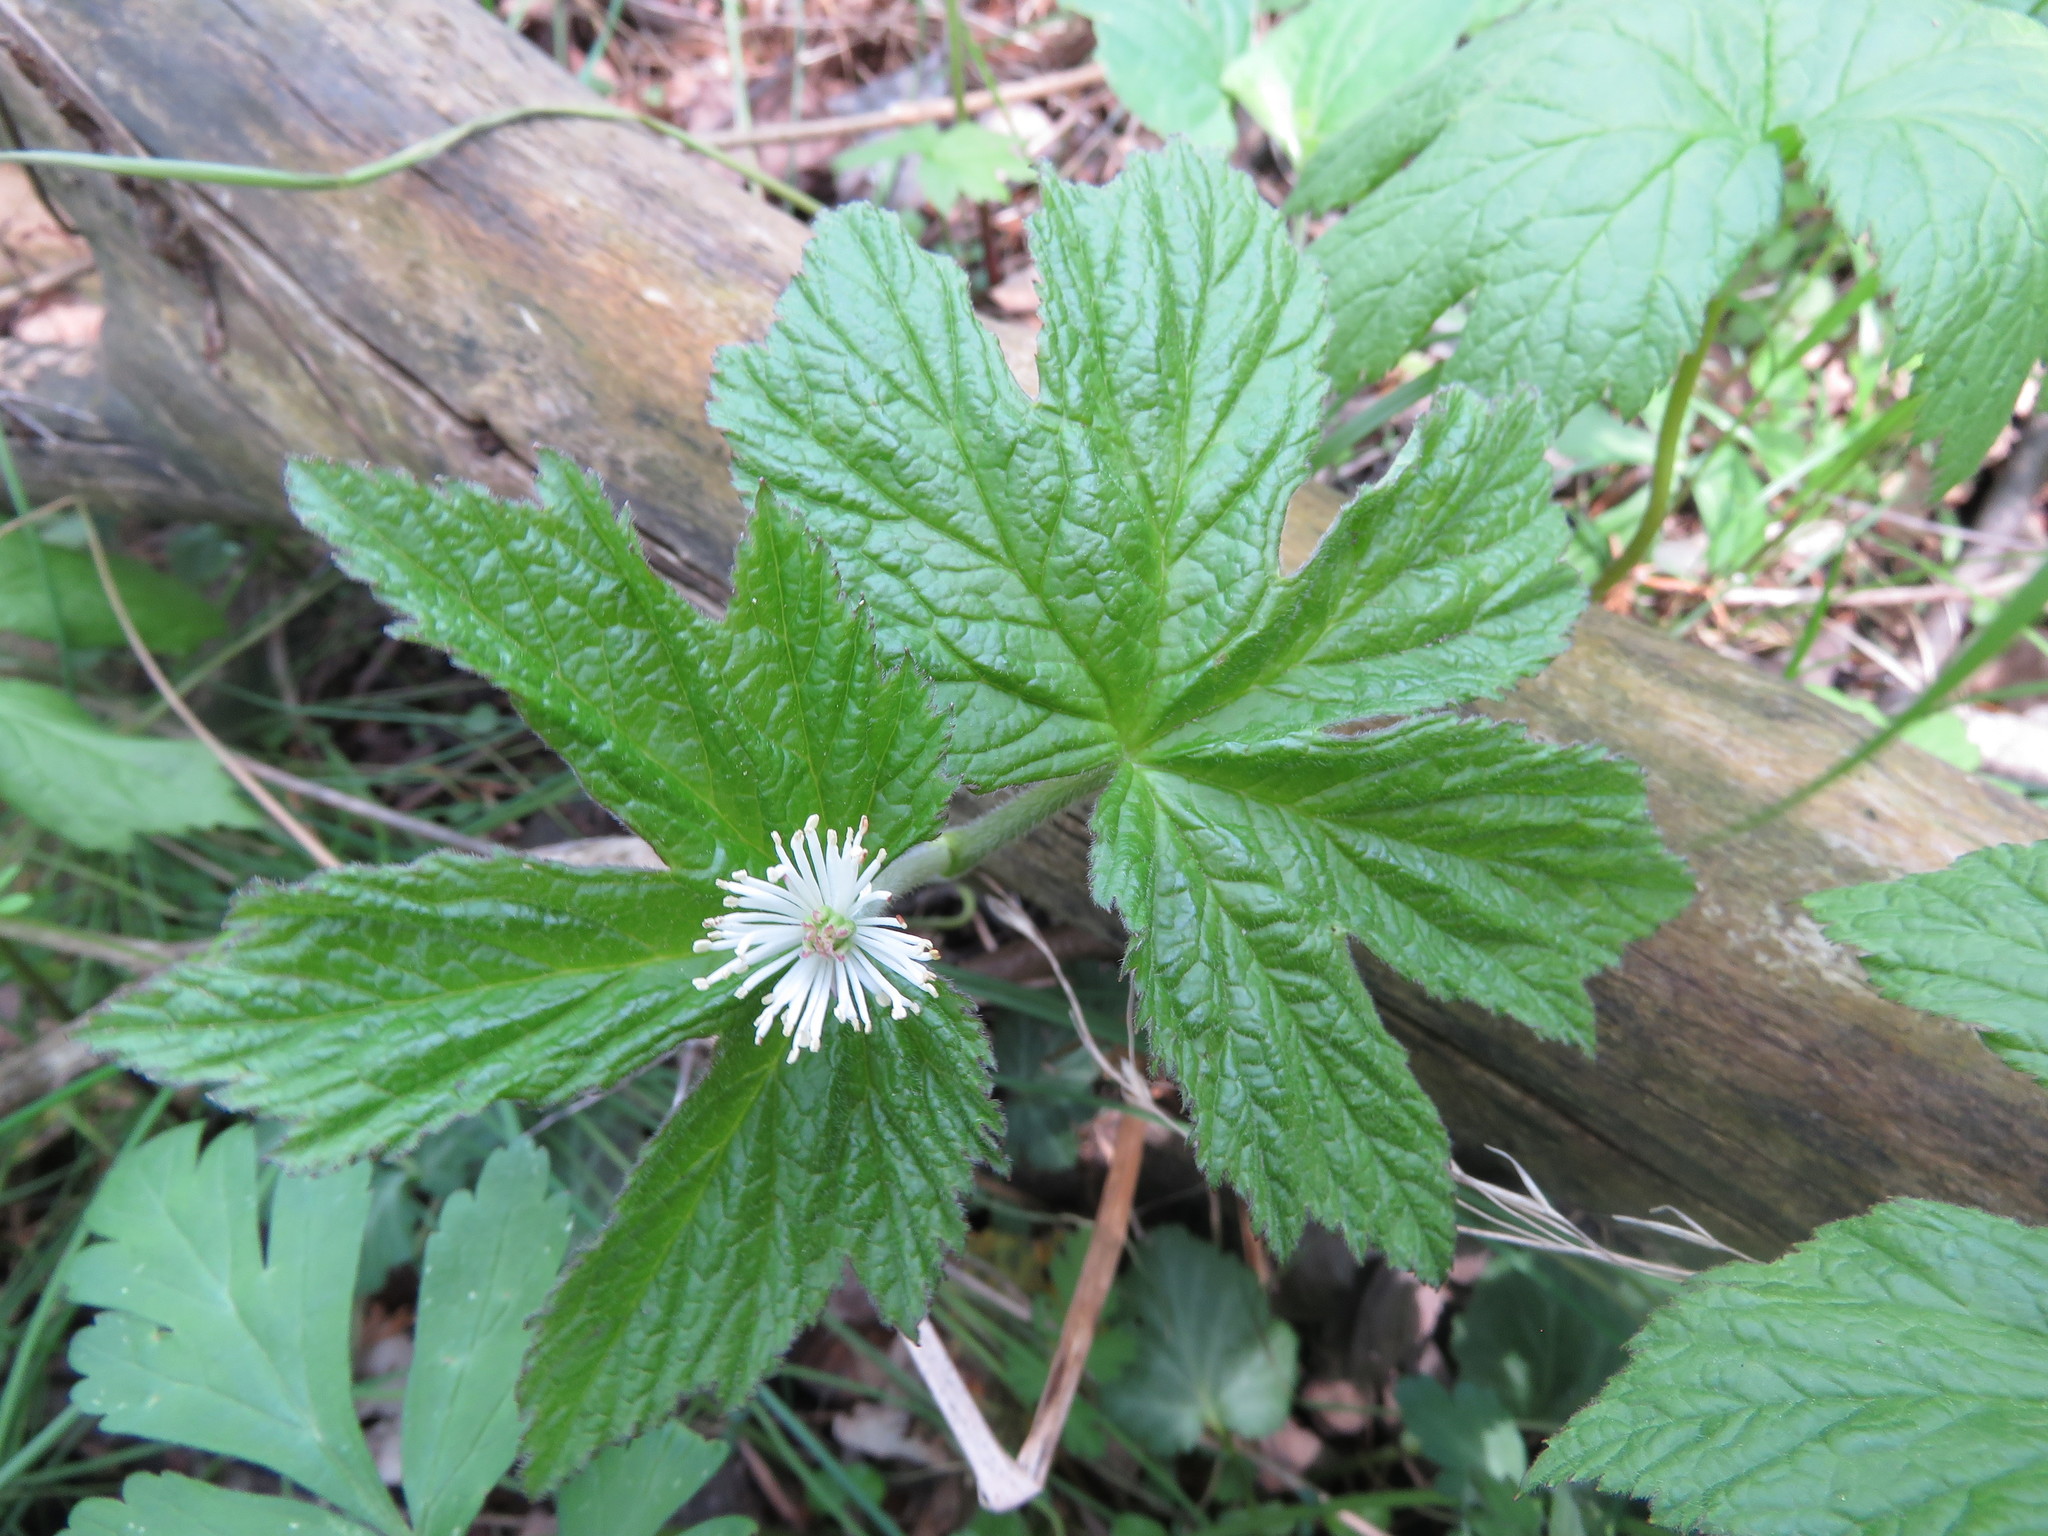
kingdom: Plantae
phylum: Tracheophyta
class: Magnoliopsida
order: Ranunculales
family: Ranunculaceae
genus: Hydrastis
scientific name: Hydrastis canadensis
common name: Goldenseal
